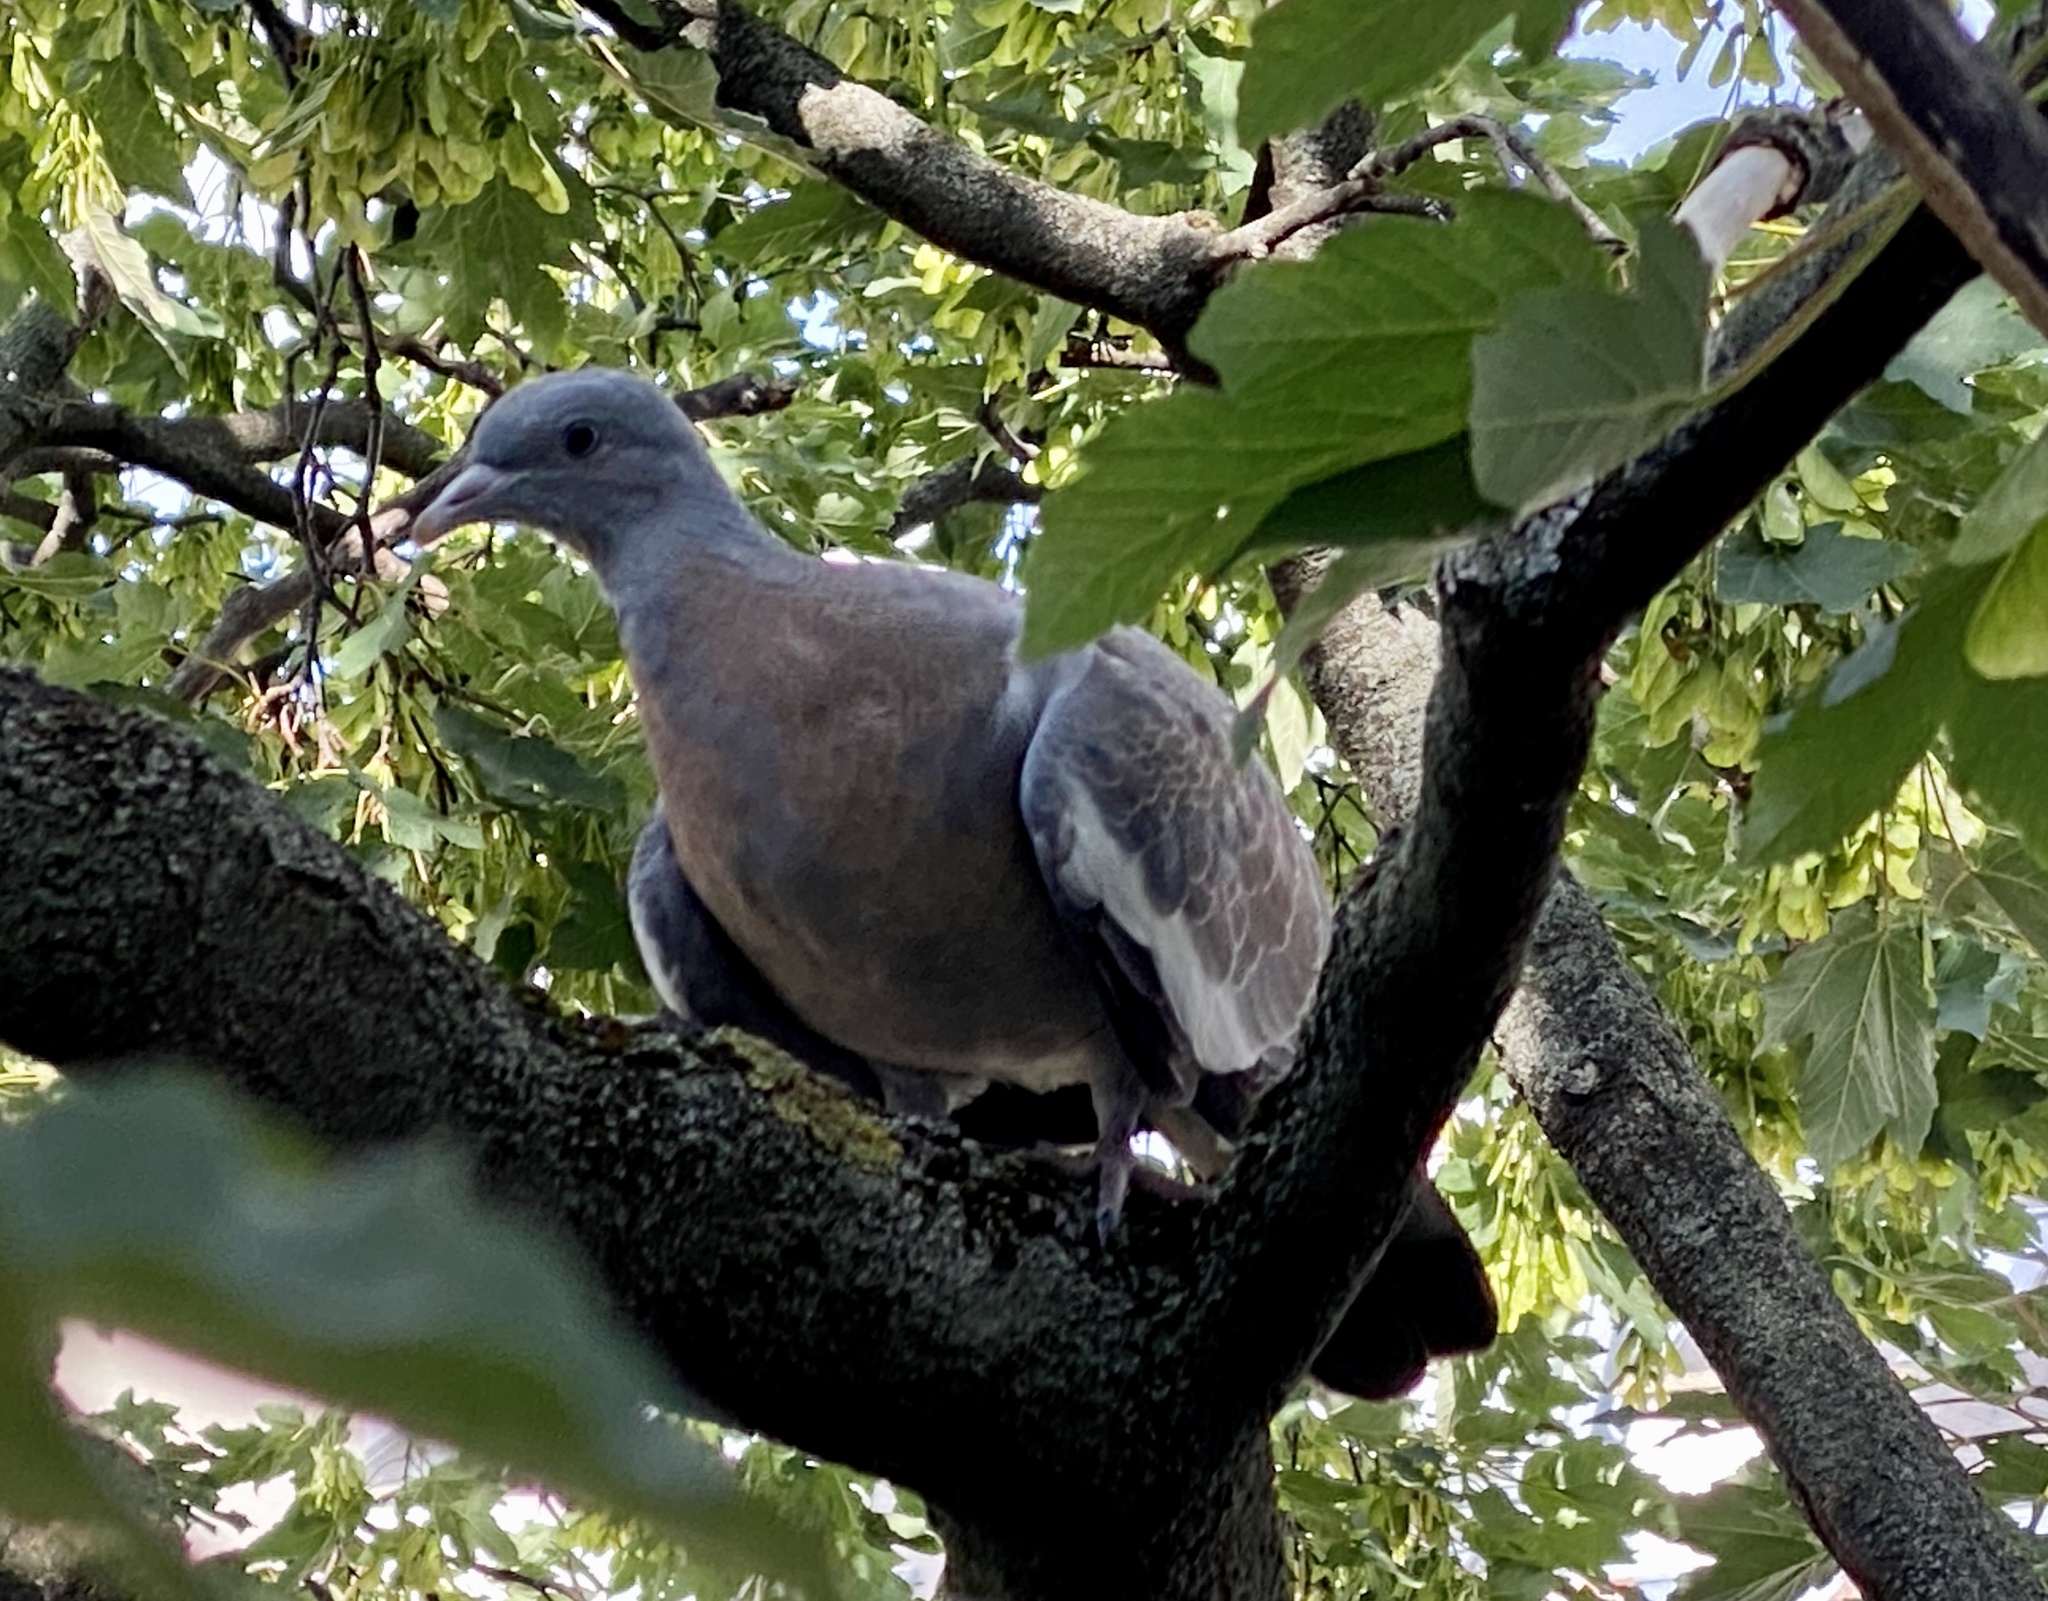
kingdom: Animalia
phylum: Chordata
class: Aves
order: Columbiformes
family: Columbidae
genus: Columba
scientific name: Columba palumbus
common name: Common wood pigeon
